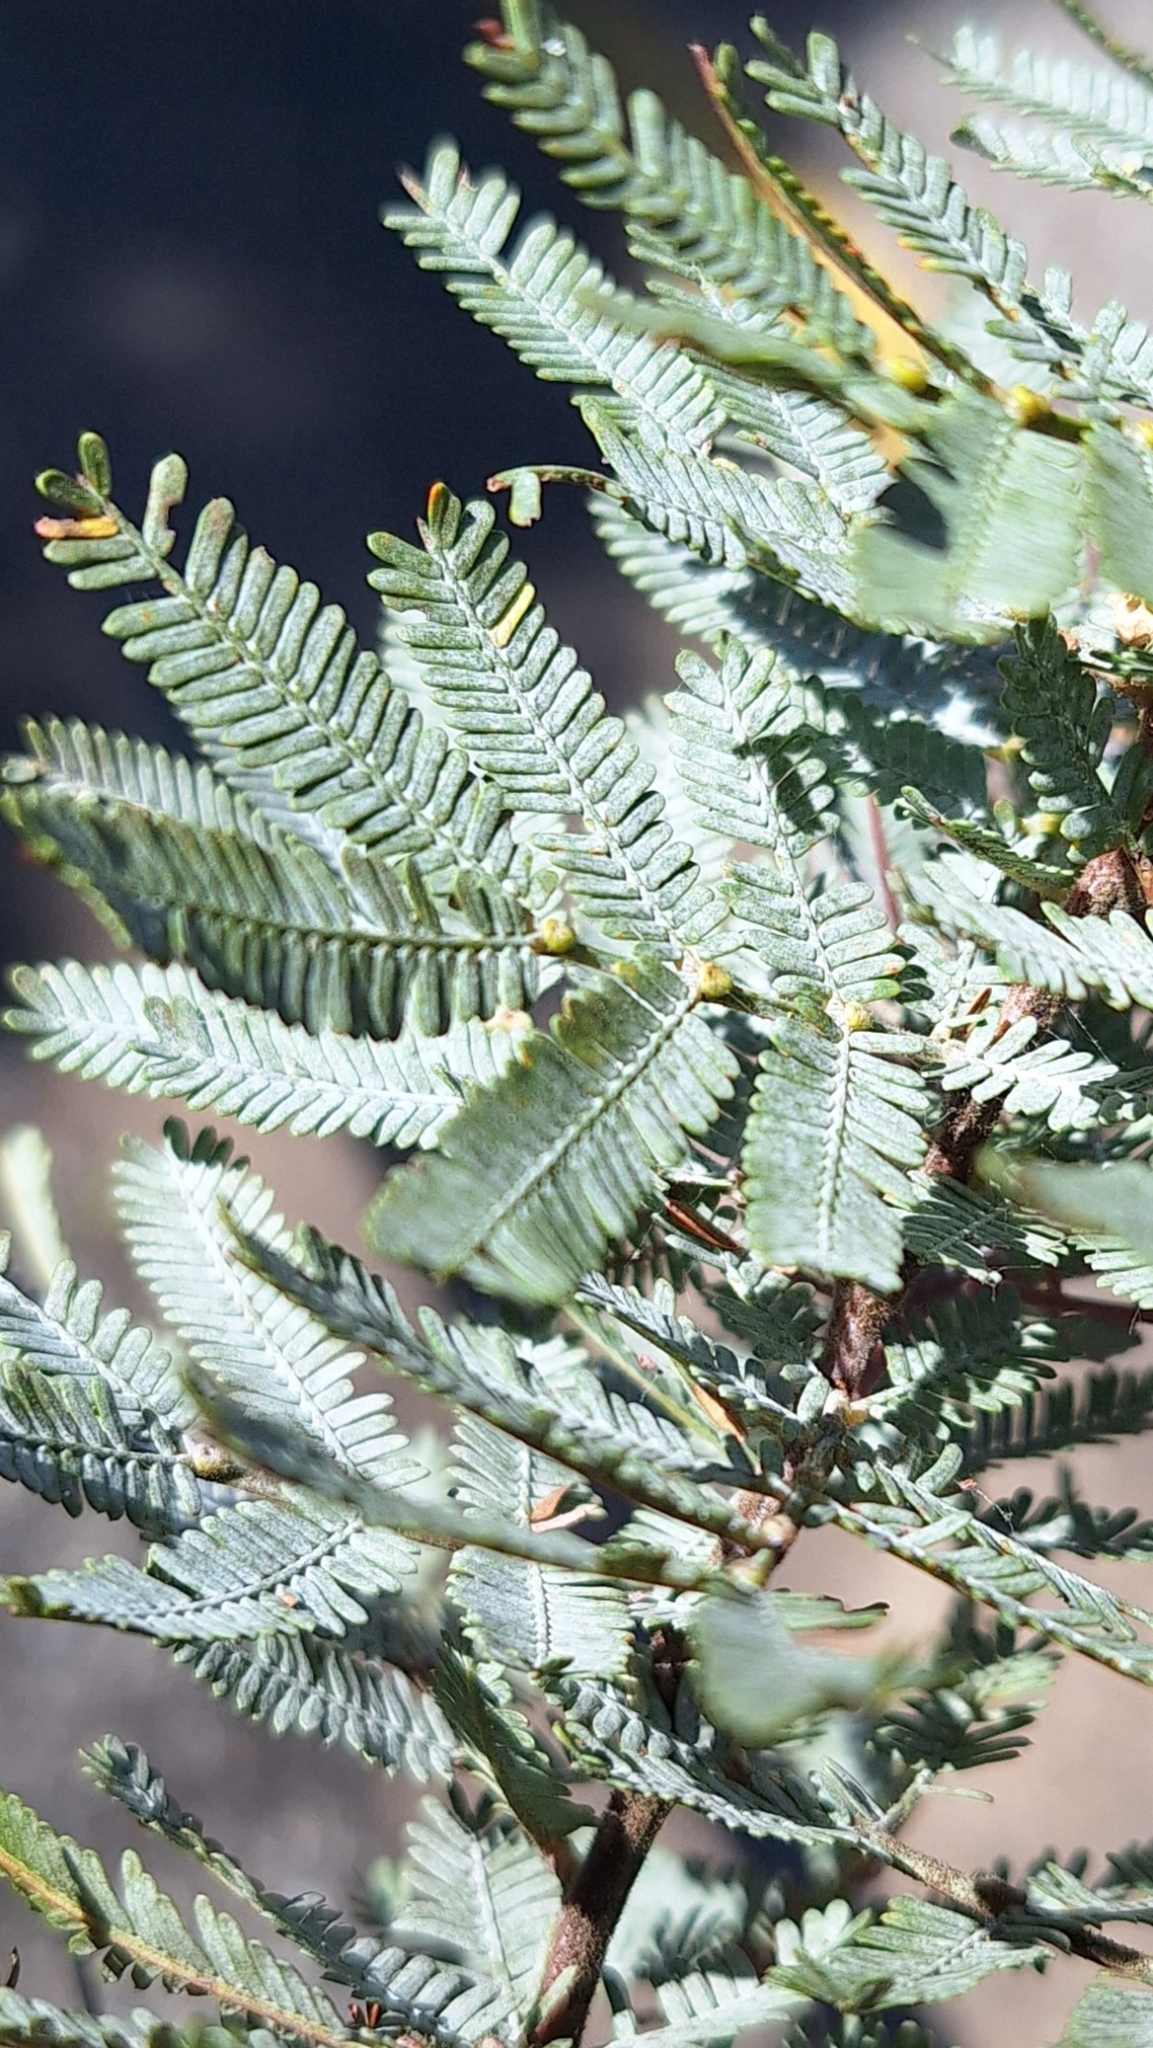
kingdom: Plantae
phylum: Tracheophyta
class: Magnoliopsida
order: Fabales
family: Fabaceae
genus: Acacia
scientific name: Acacia baileyana
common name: Cootamundra wattle
